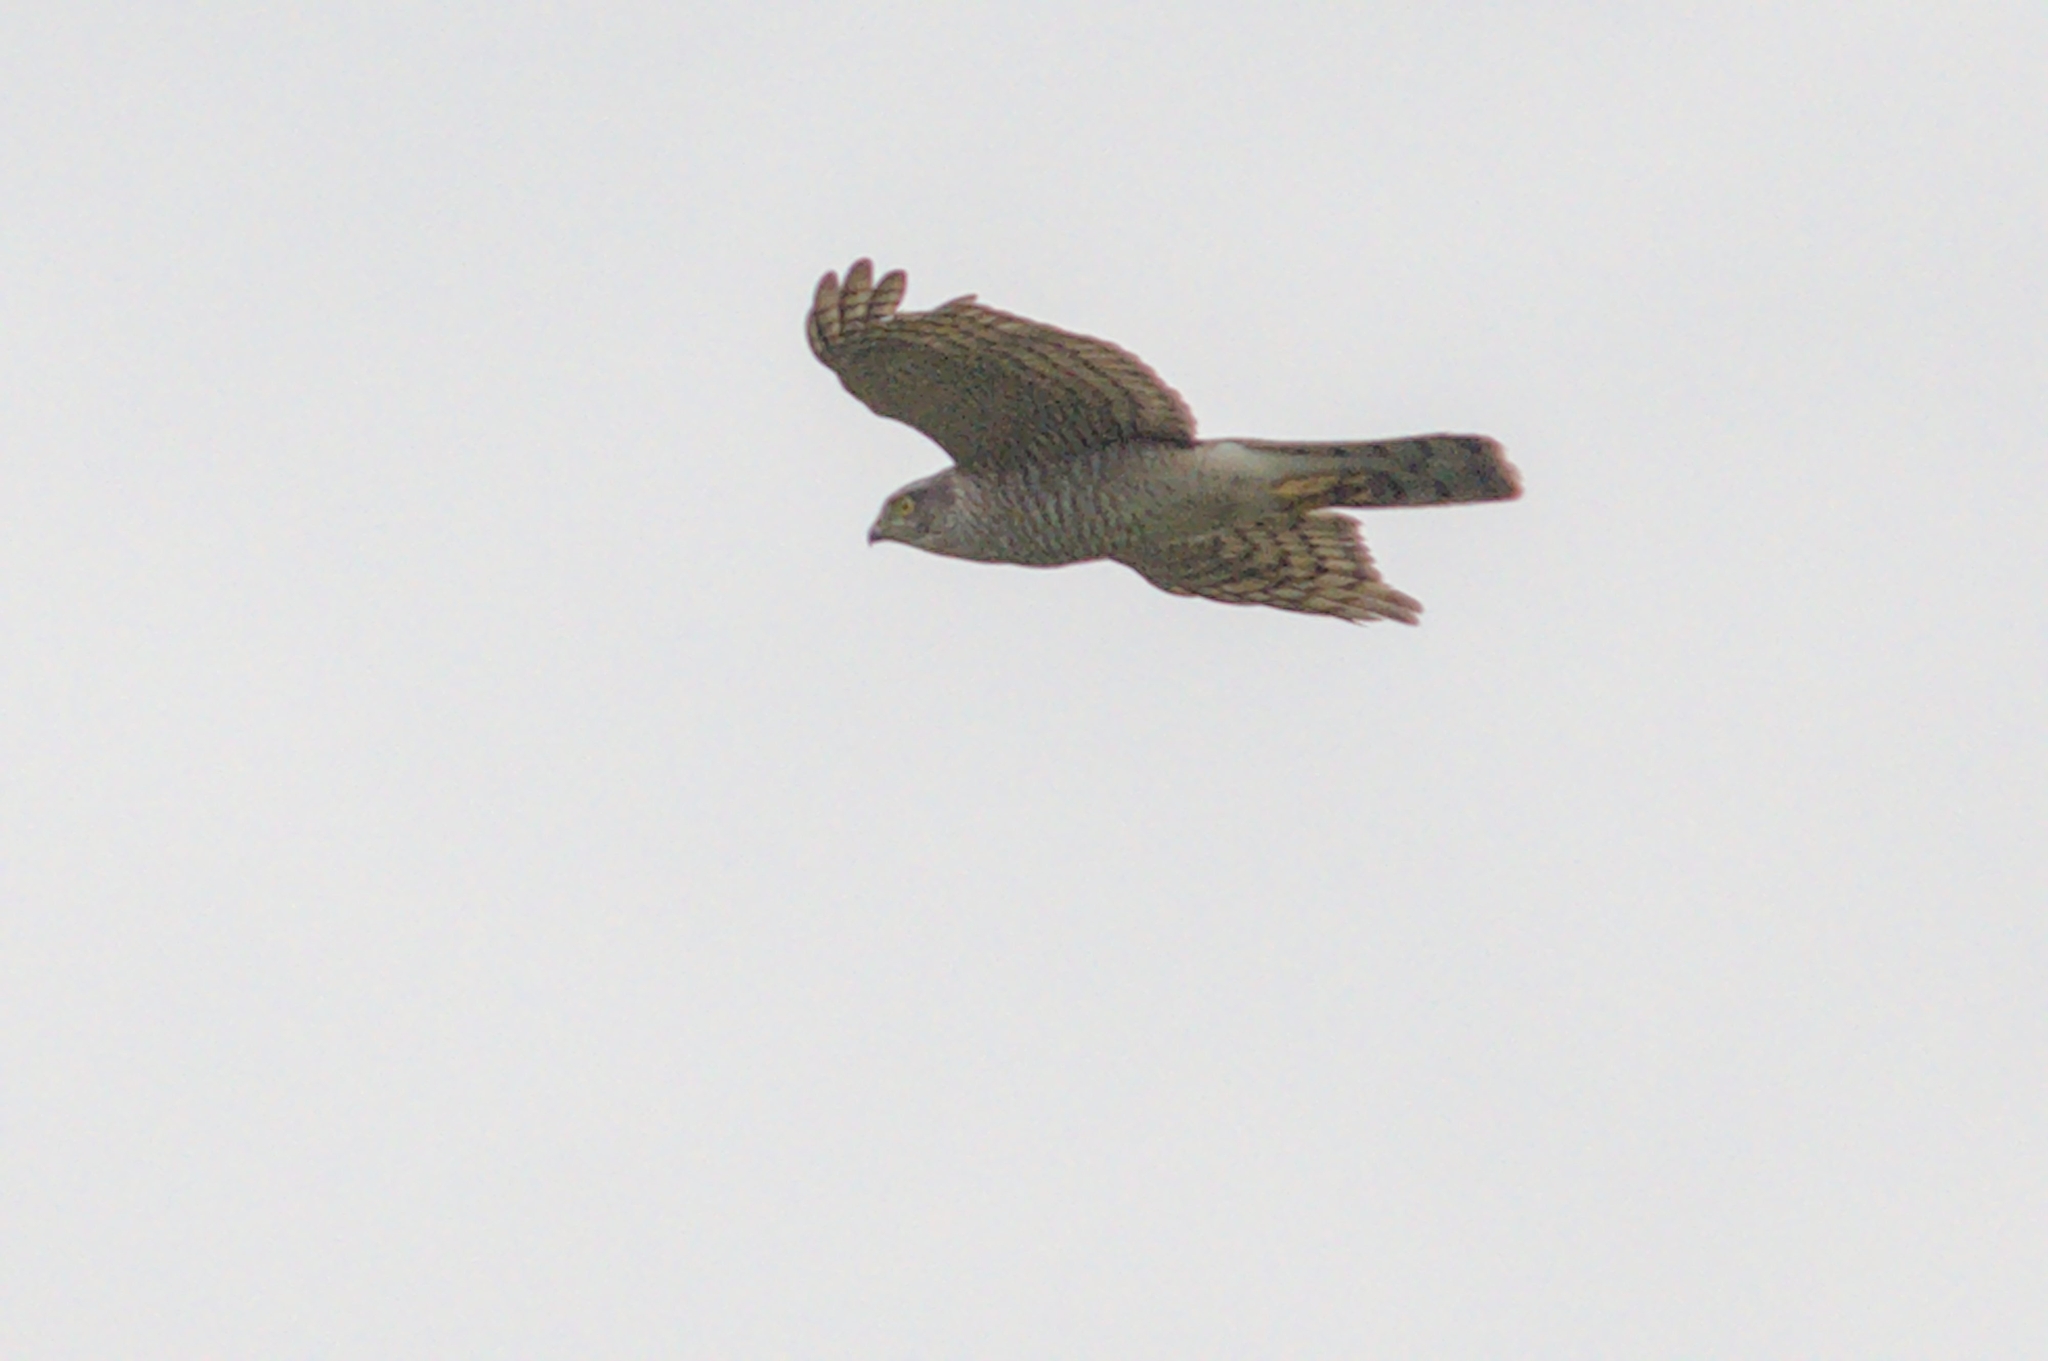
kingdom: Animalia
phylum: Chordata
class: Aves
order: Accipitriformes
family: Accipitridae
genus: Accipiter
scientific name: Accipiter nisus
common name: Eurasian sparrowhawk
